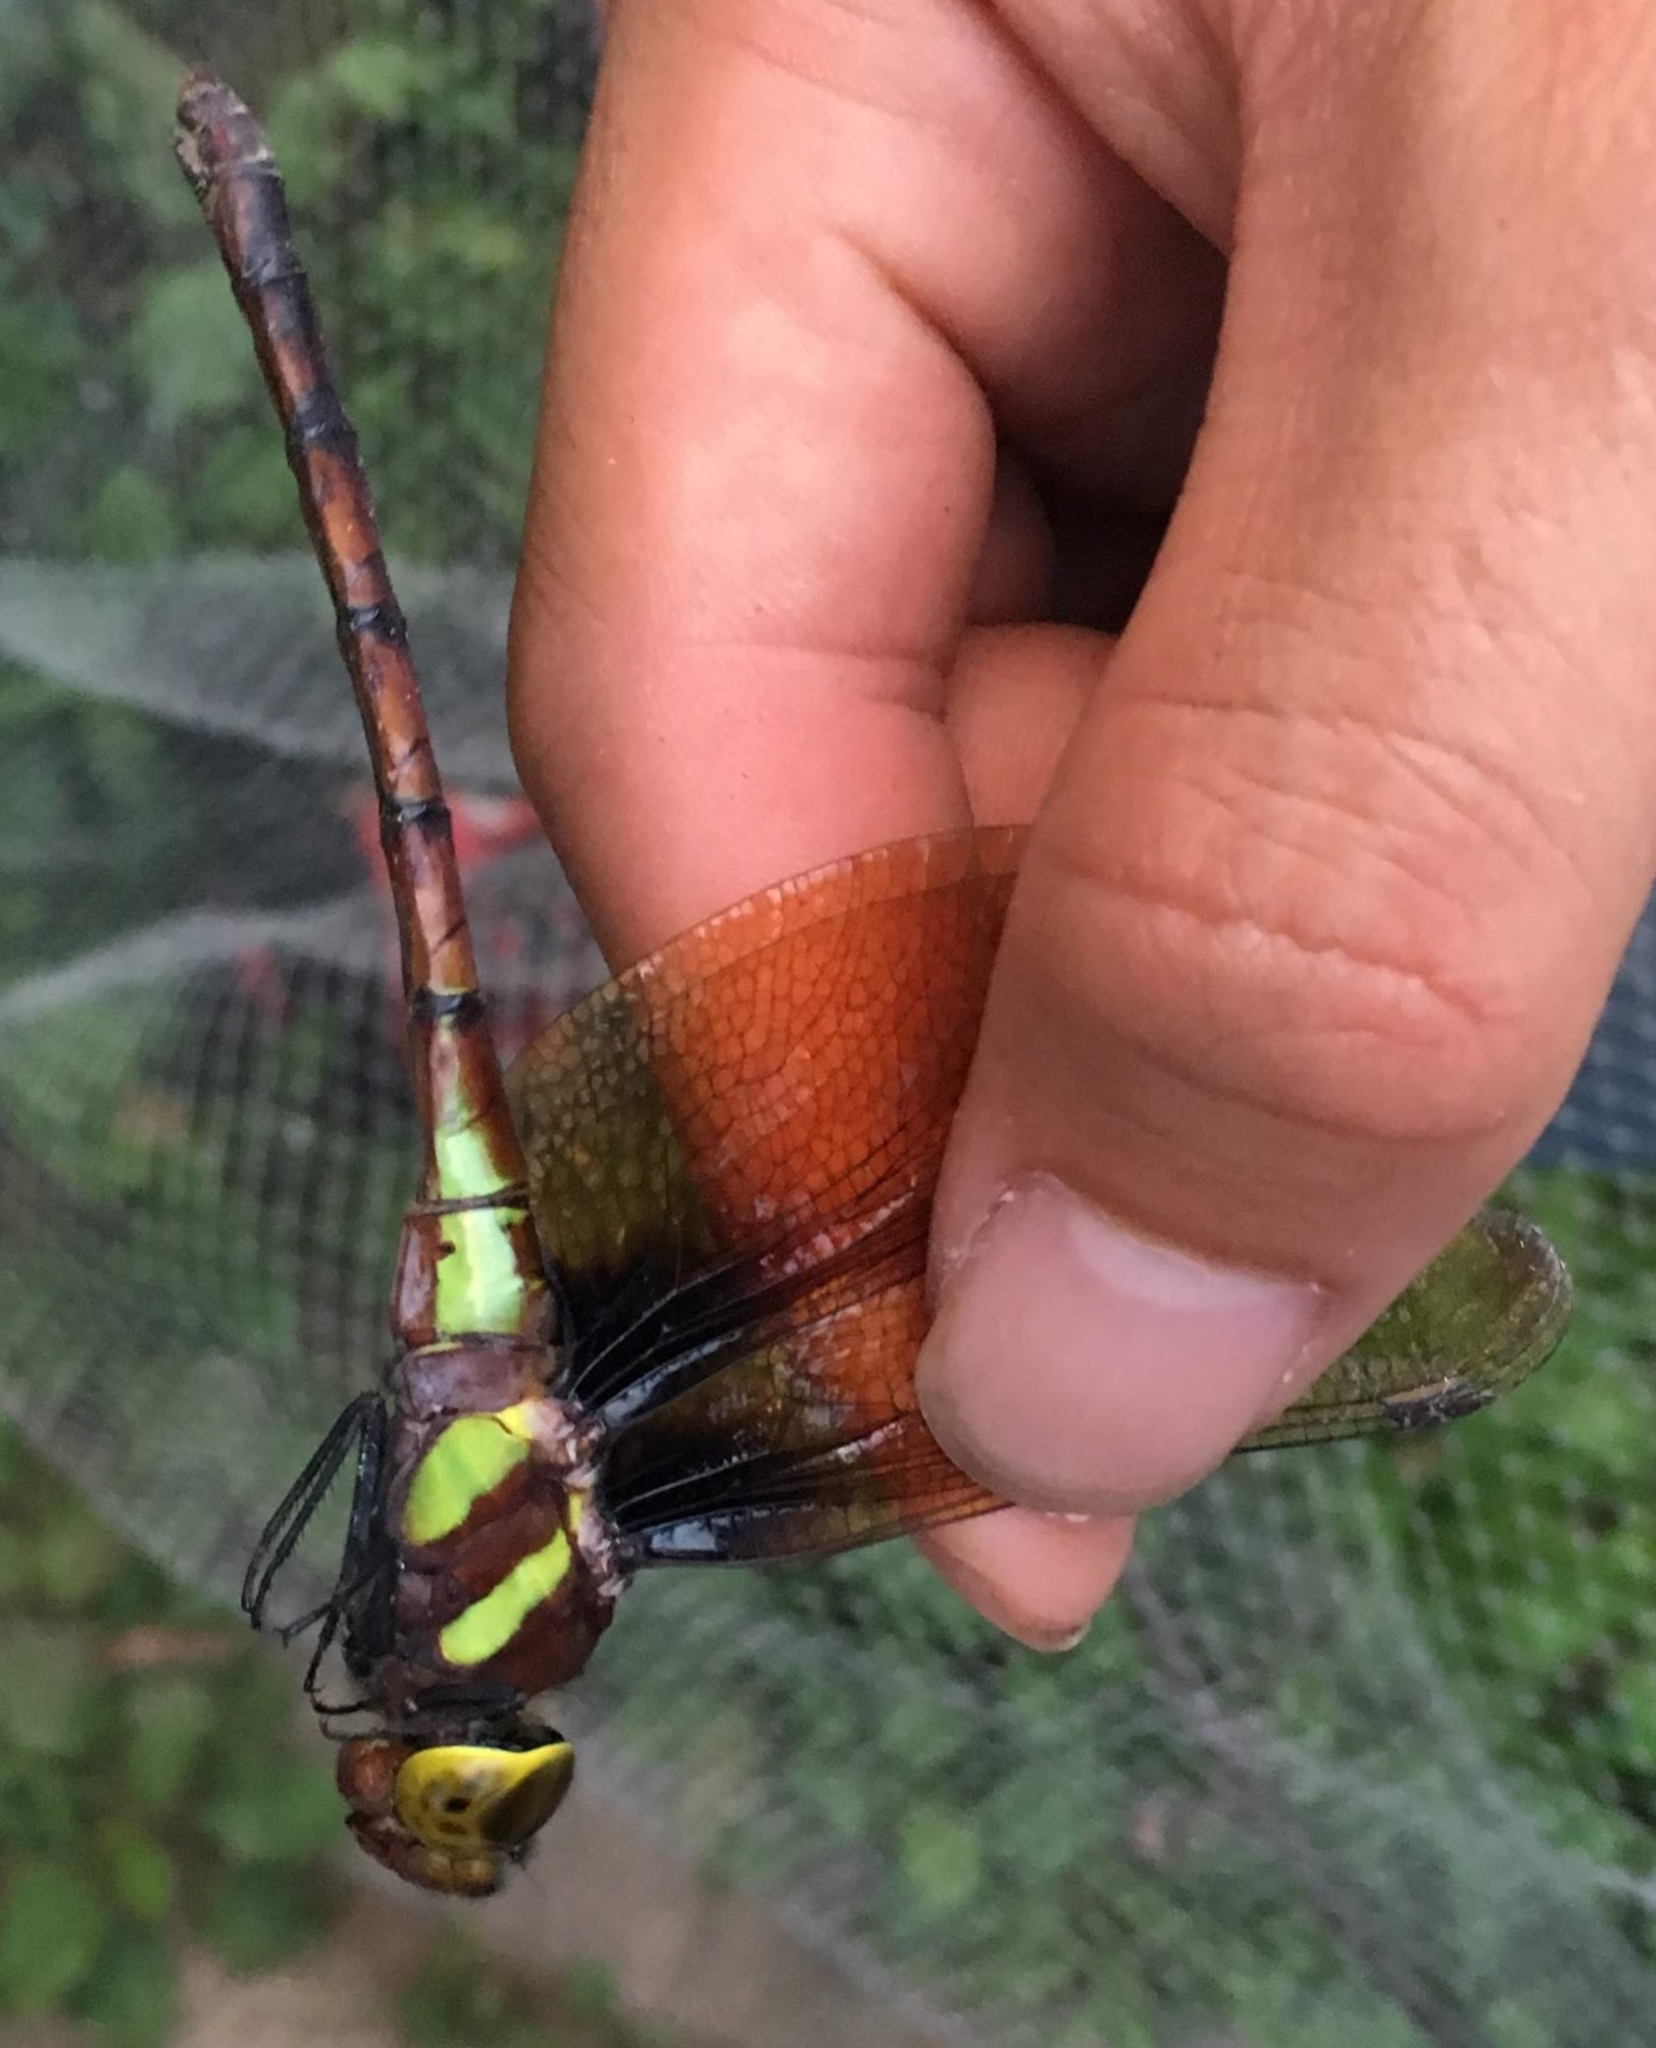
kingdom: Animalia
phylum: Arthropoda
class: Insecta
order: Odonata
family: Aeshnidae
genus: Anaciaeschna
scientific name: Anaciaeschna martini
